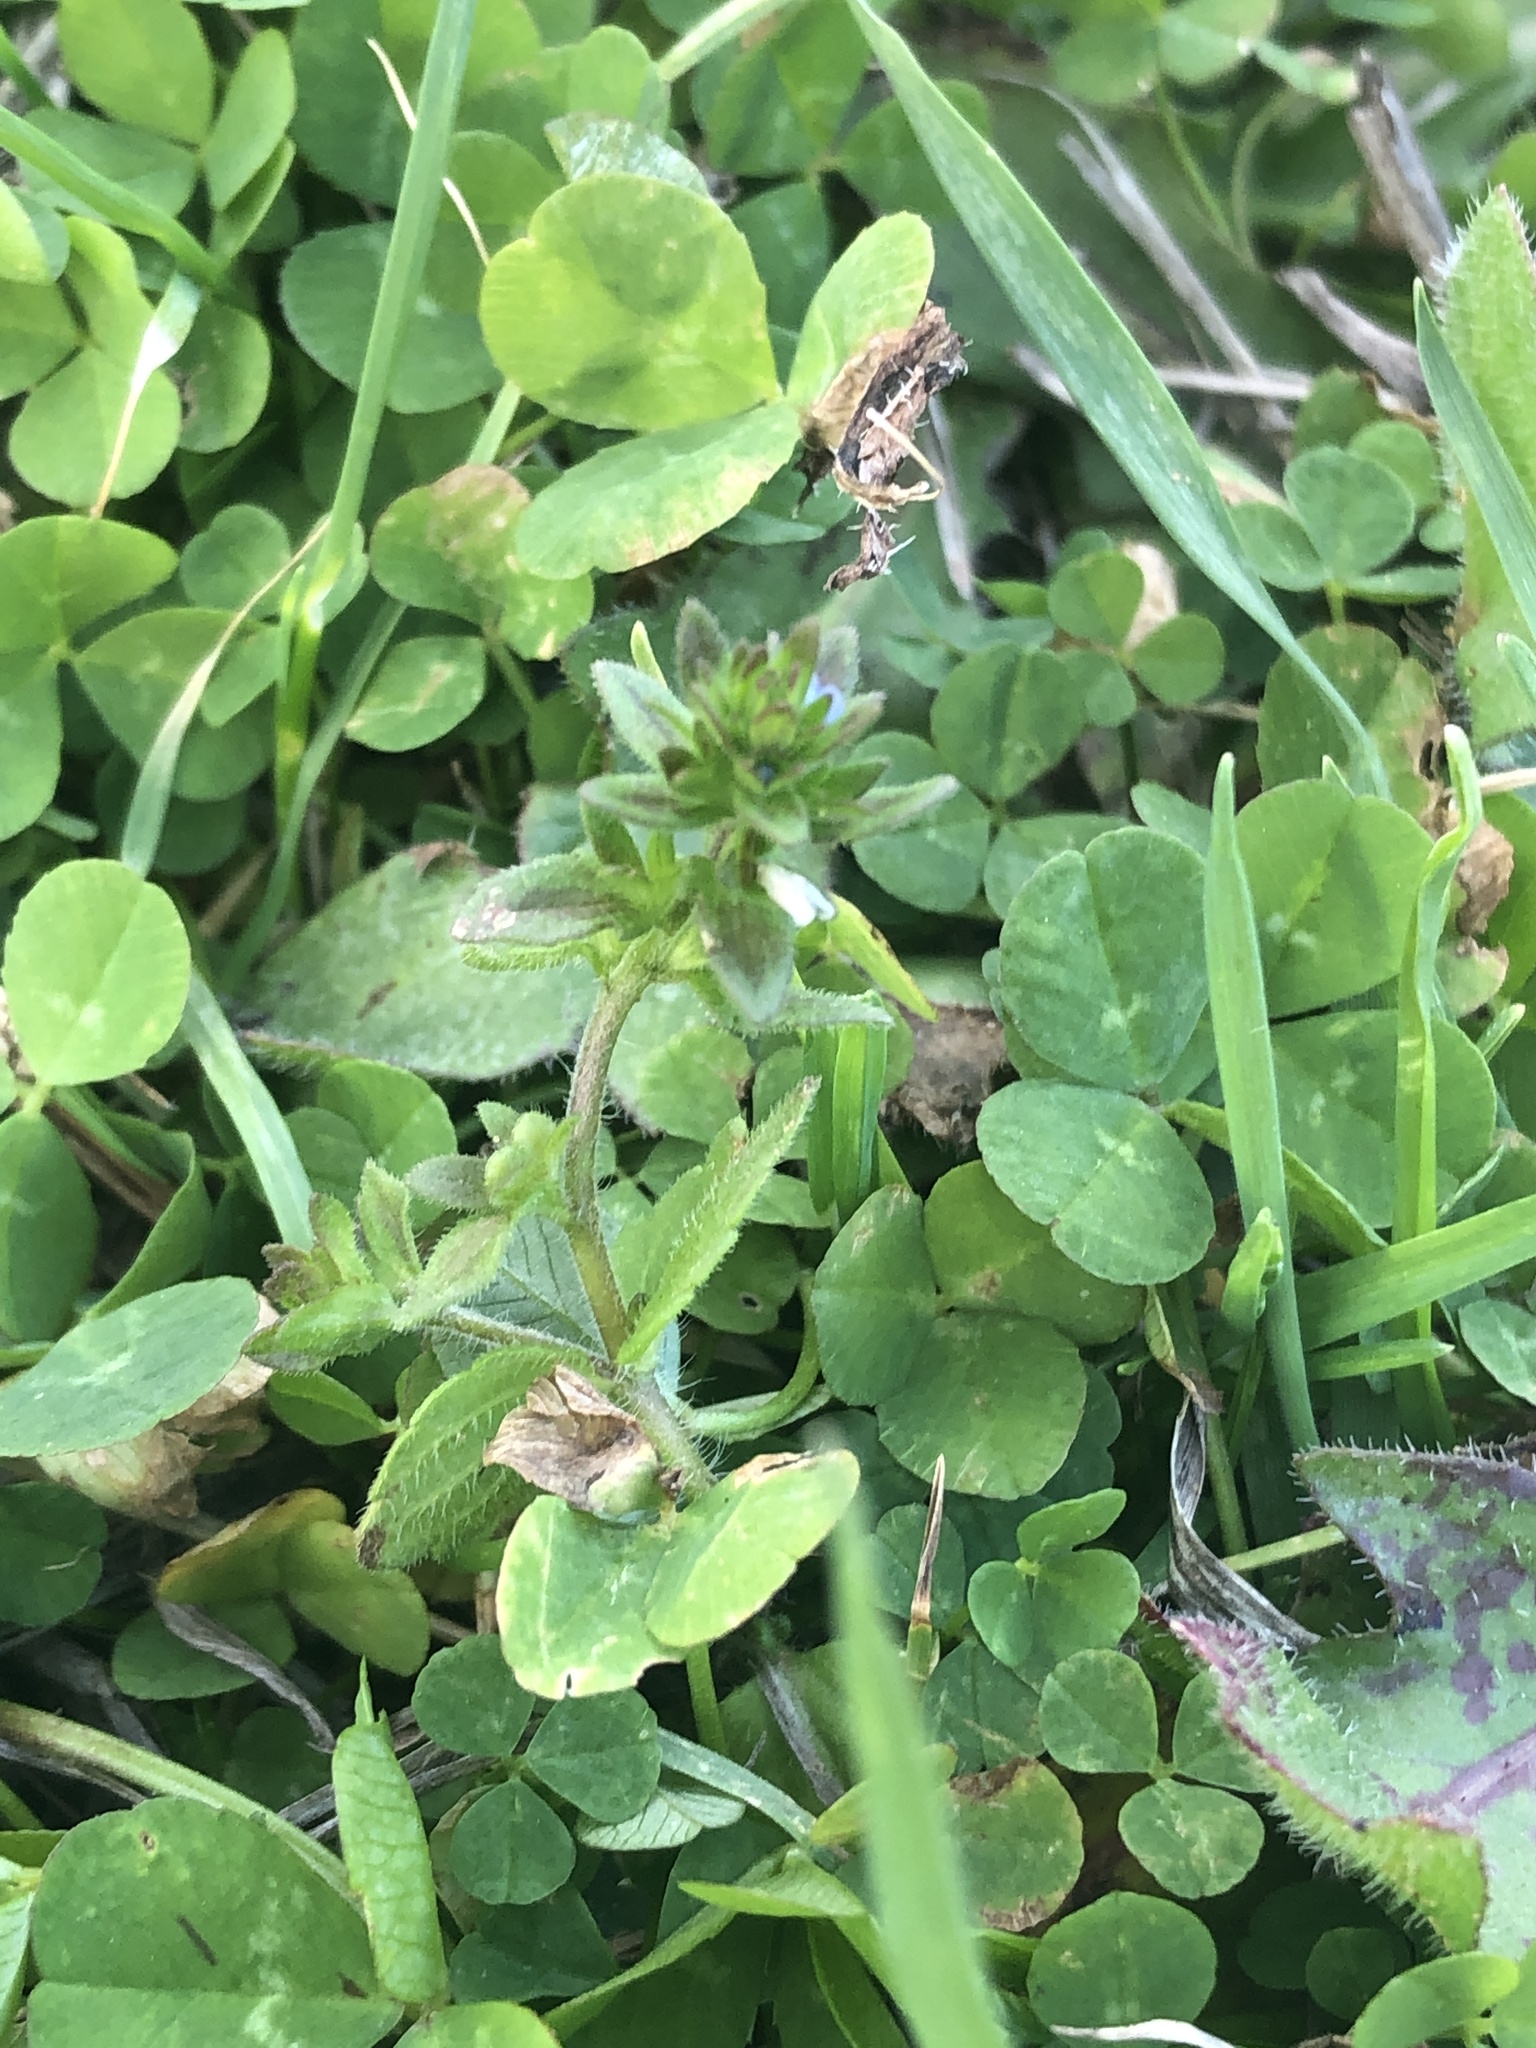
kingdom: Plantae
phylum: Tracheophyta
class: Magnoliopsida
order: Lamiales
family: Plantaginaceae
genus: Veronica
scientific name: Veronica arvensis
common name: Corn speedwell
